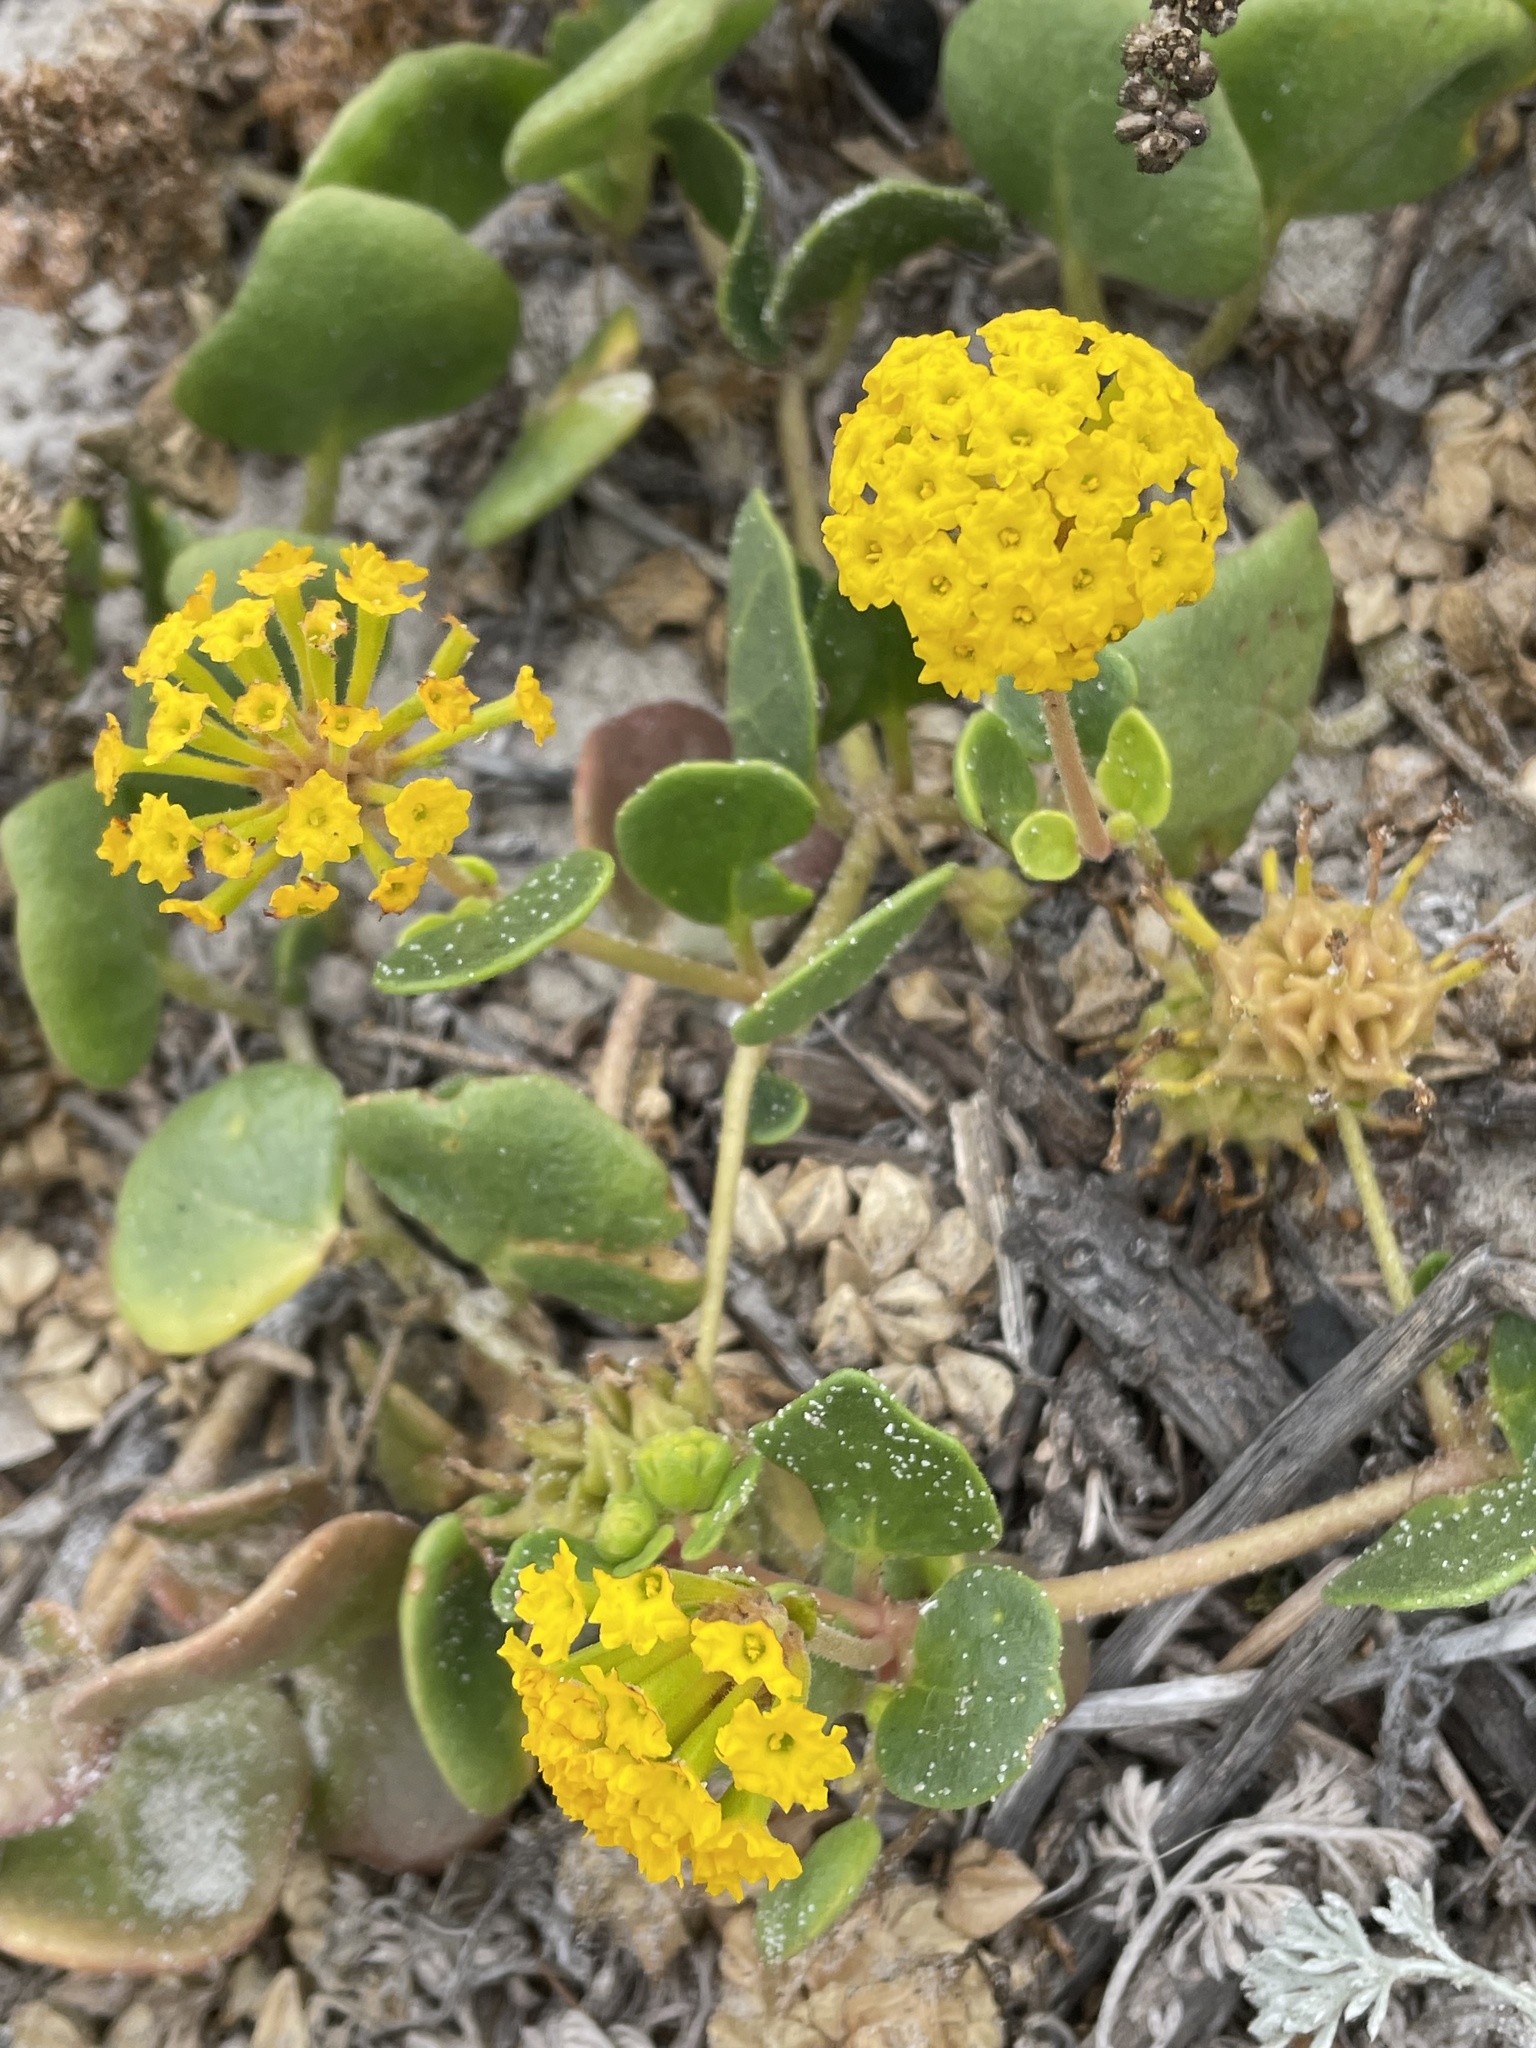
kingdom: Plantae
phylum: Tracheophyta
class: Magnoliopsida
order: Caryophyllales
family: Nyctaginaceae
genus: Abronia
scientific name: Abronia latifolia
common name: Yellow sand-verbena
